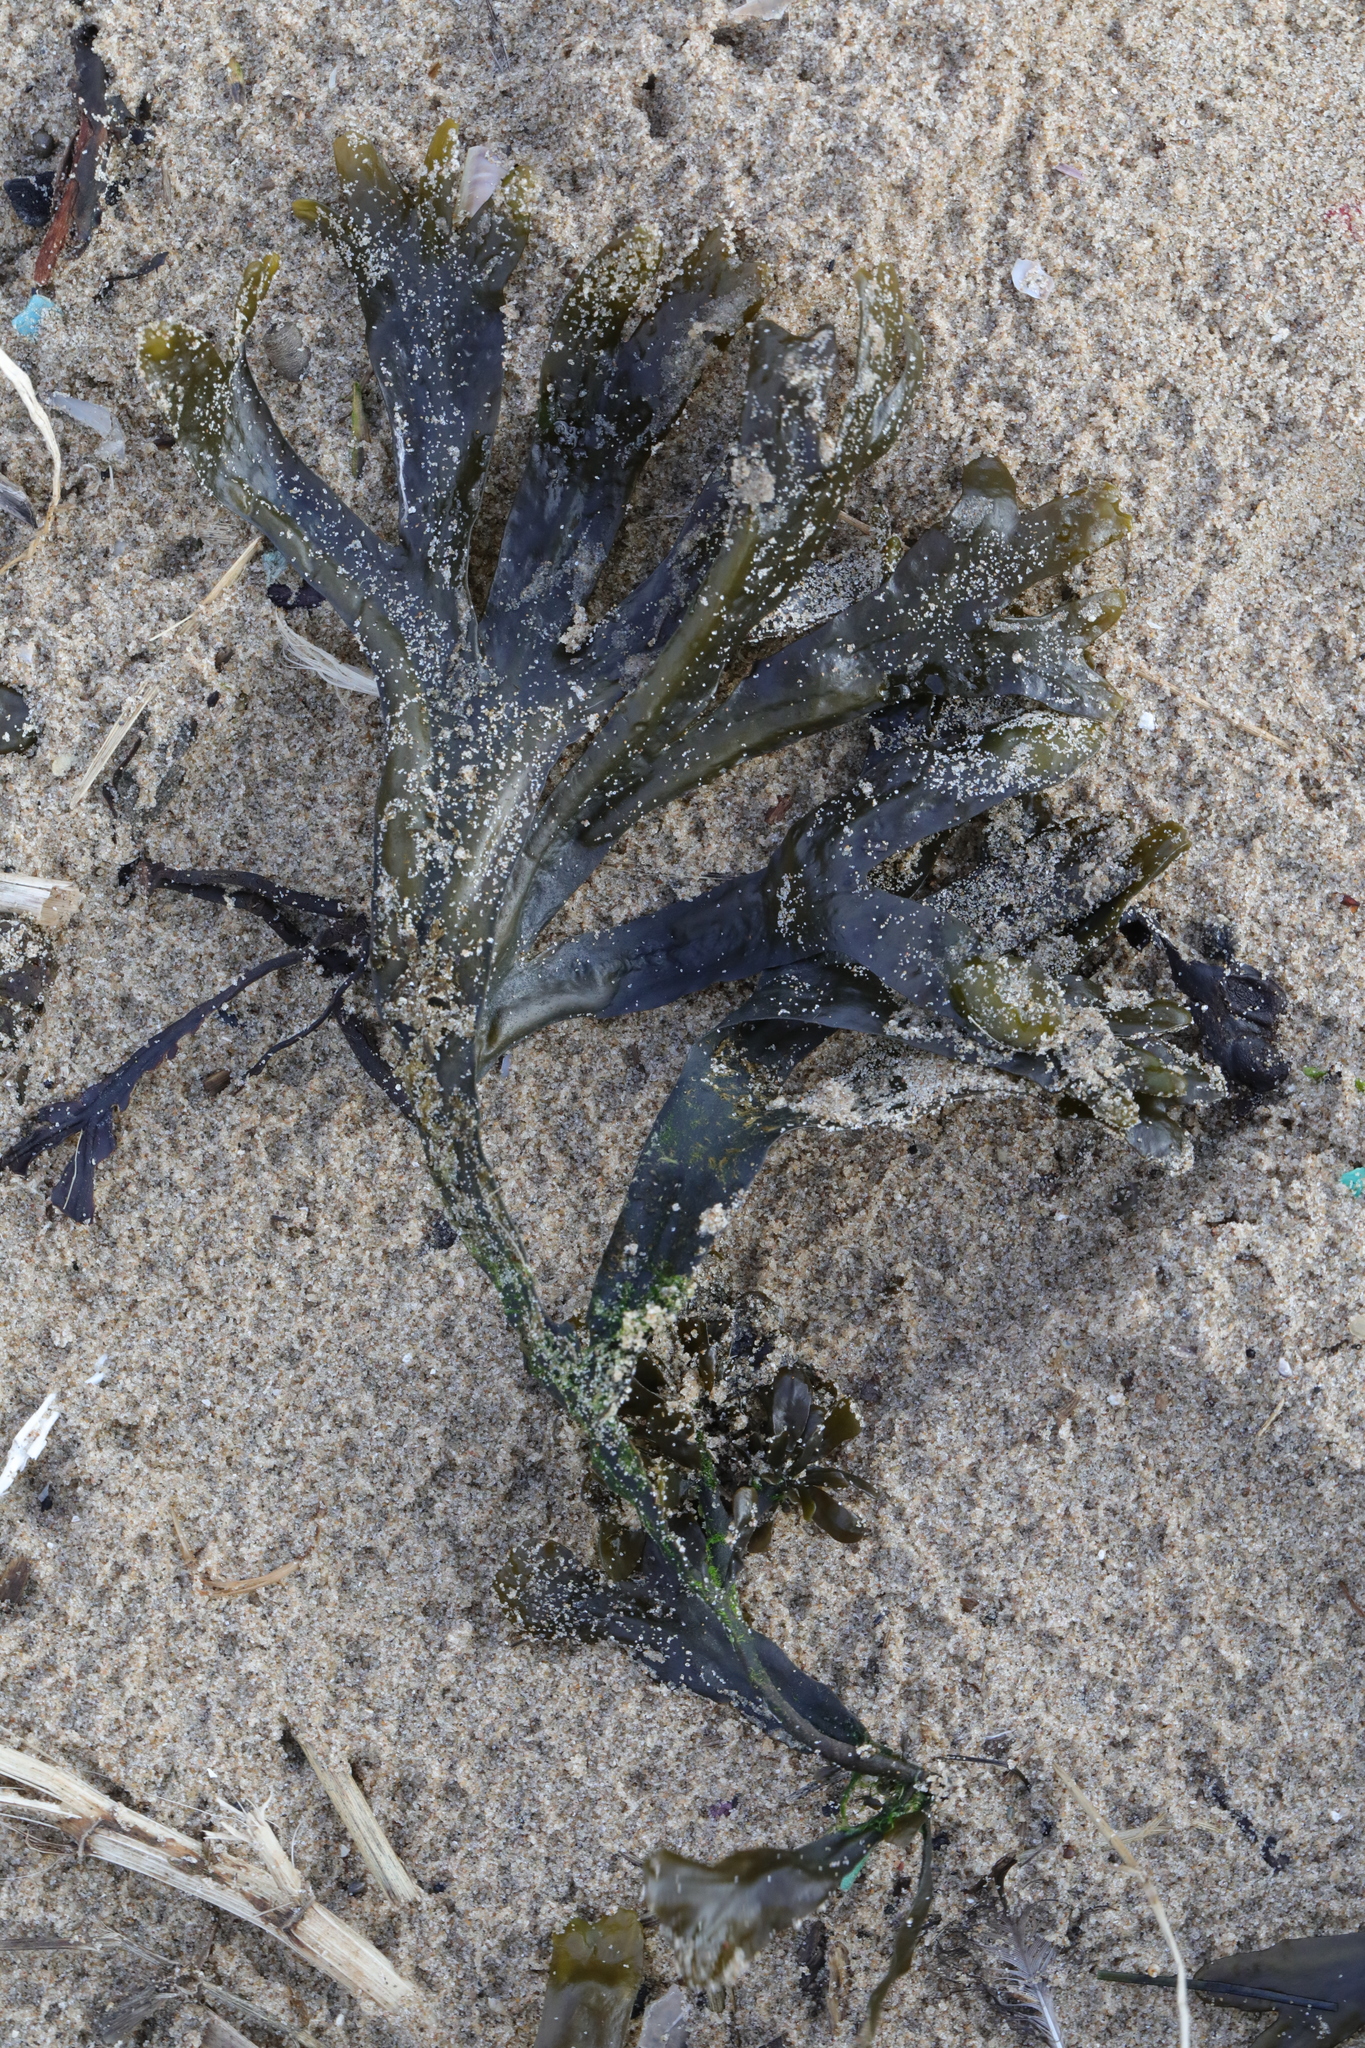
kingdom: Chromista
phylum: Ochrophyta
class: Phaeophyceae
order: Fucales
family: Fucaceae
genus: Fucus
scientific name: Fucus ceranoides
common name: Horned wrack
